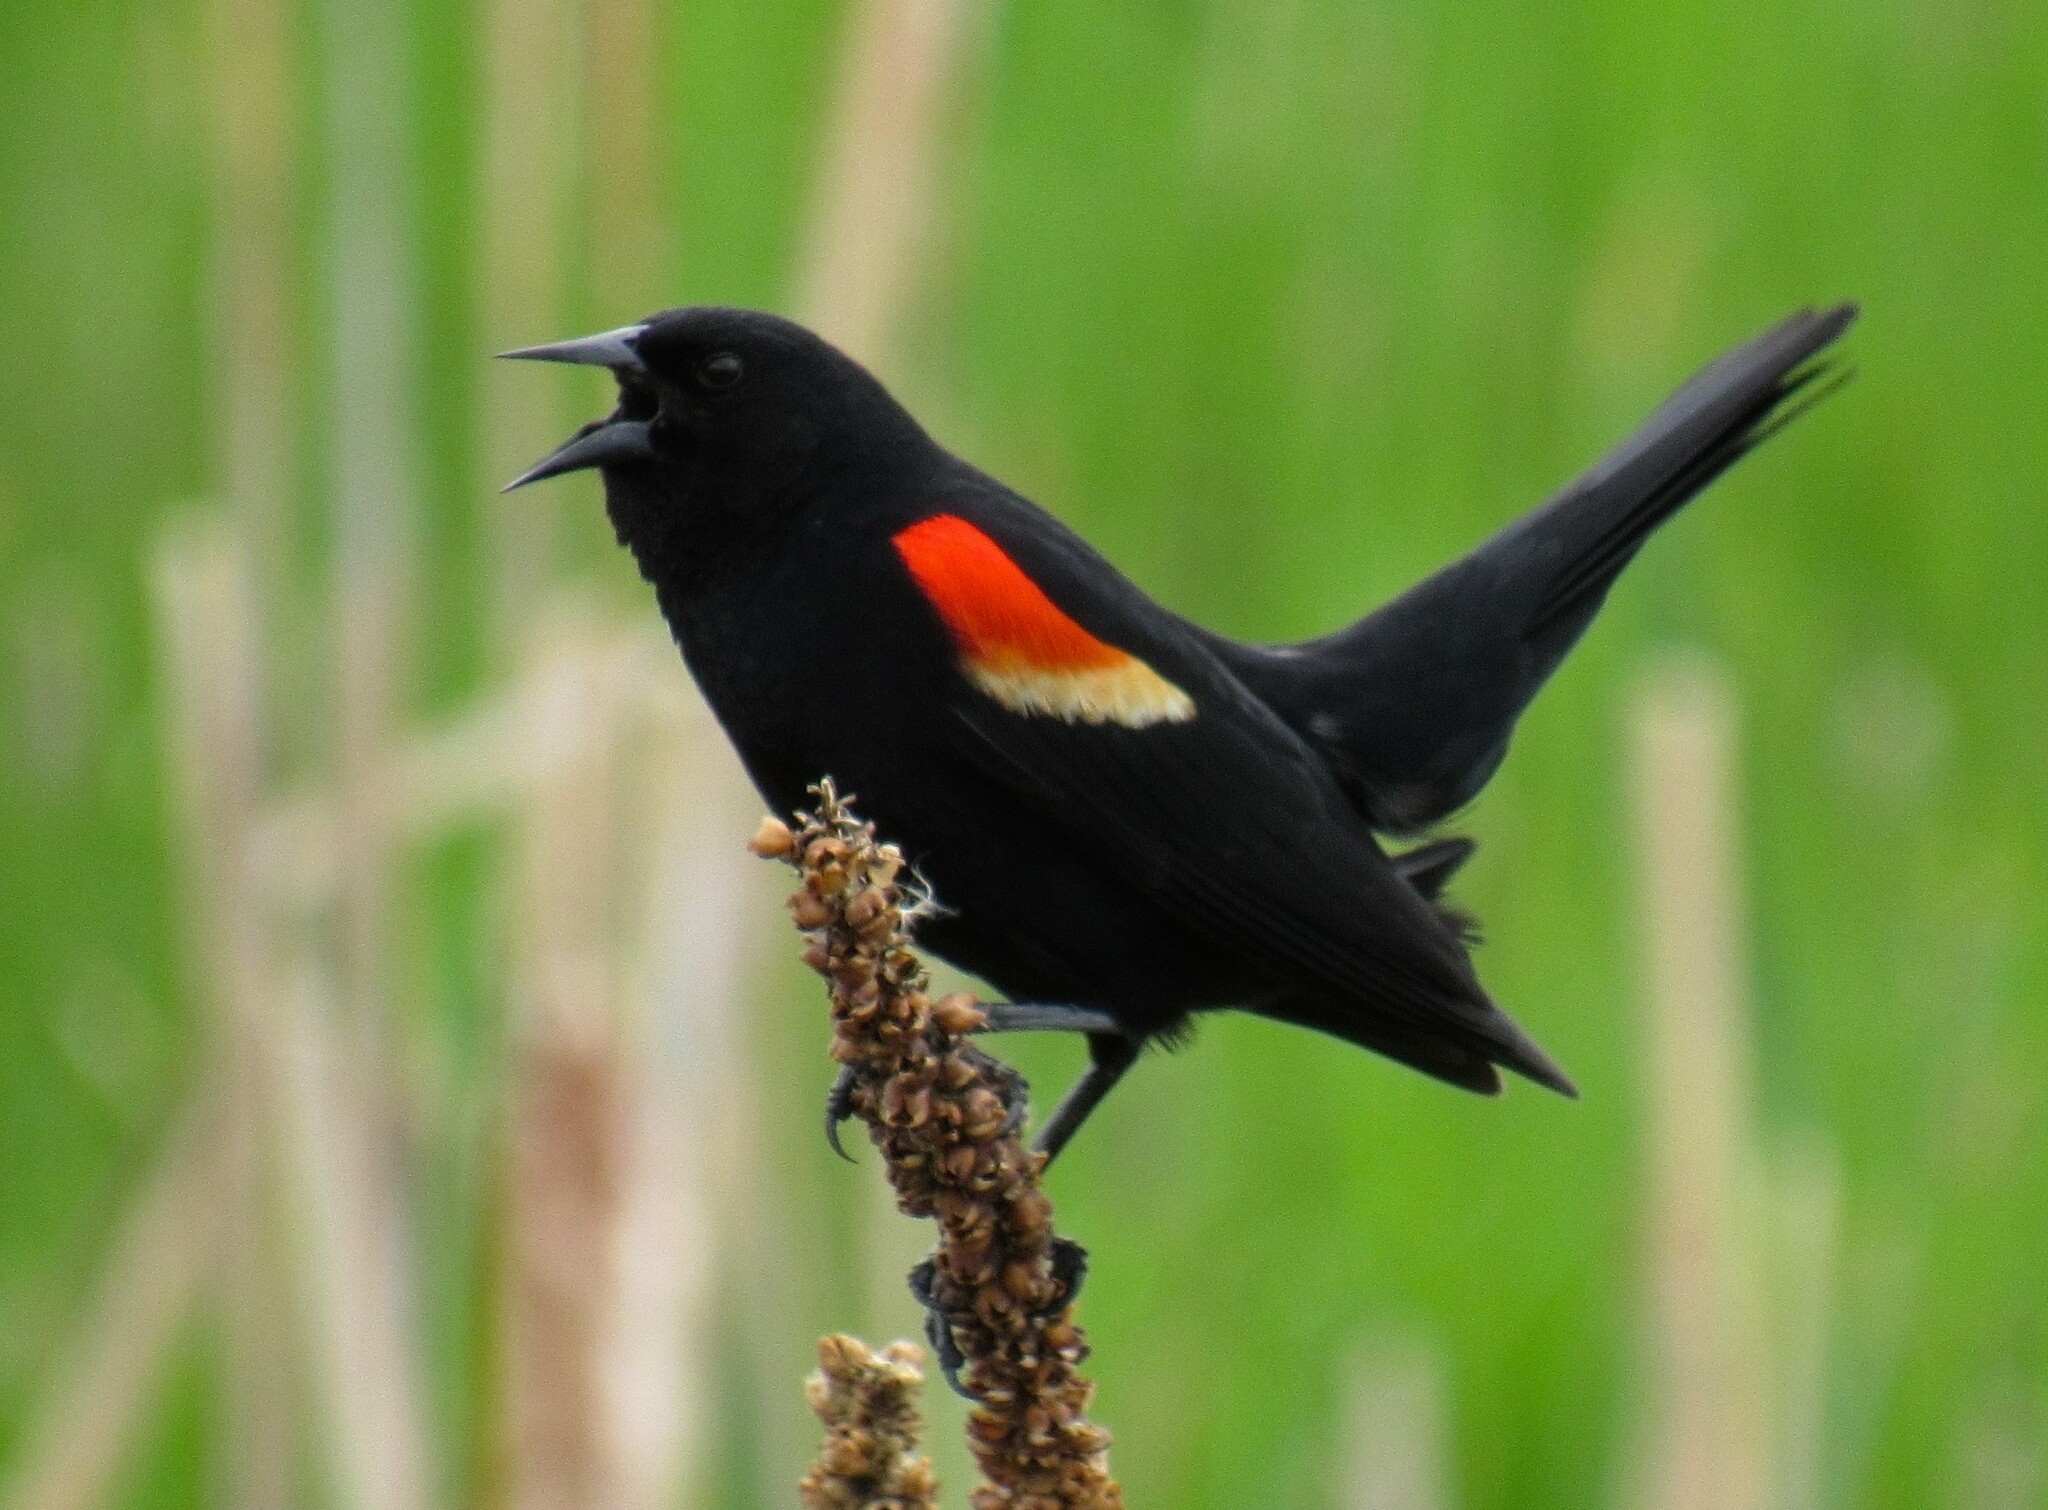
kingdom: Animalia
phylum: Chordata
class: Aves
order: Passeriformes
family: Icteridae
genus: Agelaius
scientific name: Agelaius phoeniceus
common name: Red-winged blackbird
